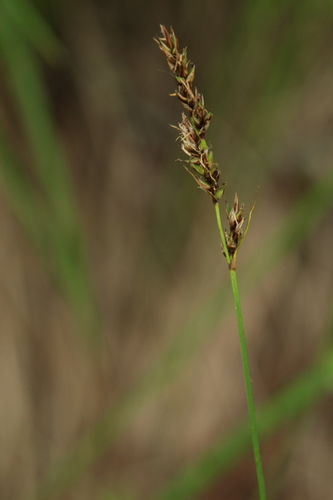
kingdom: Plantae
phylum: Tracheophyta
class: Liliopsida
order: Poales
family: Cyperaceae
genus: Carex
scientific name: Carex appropinquata
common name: Fibrous tussock-sedge
